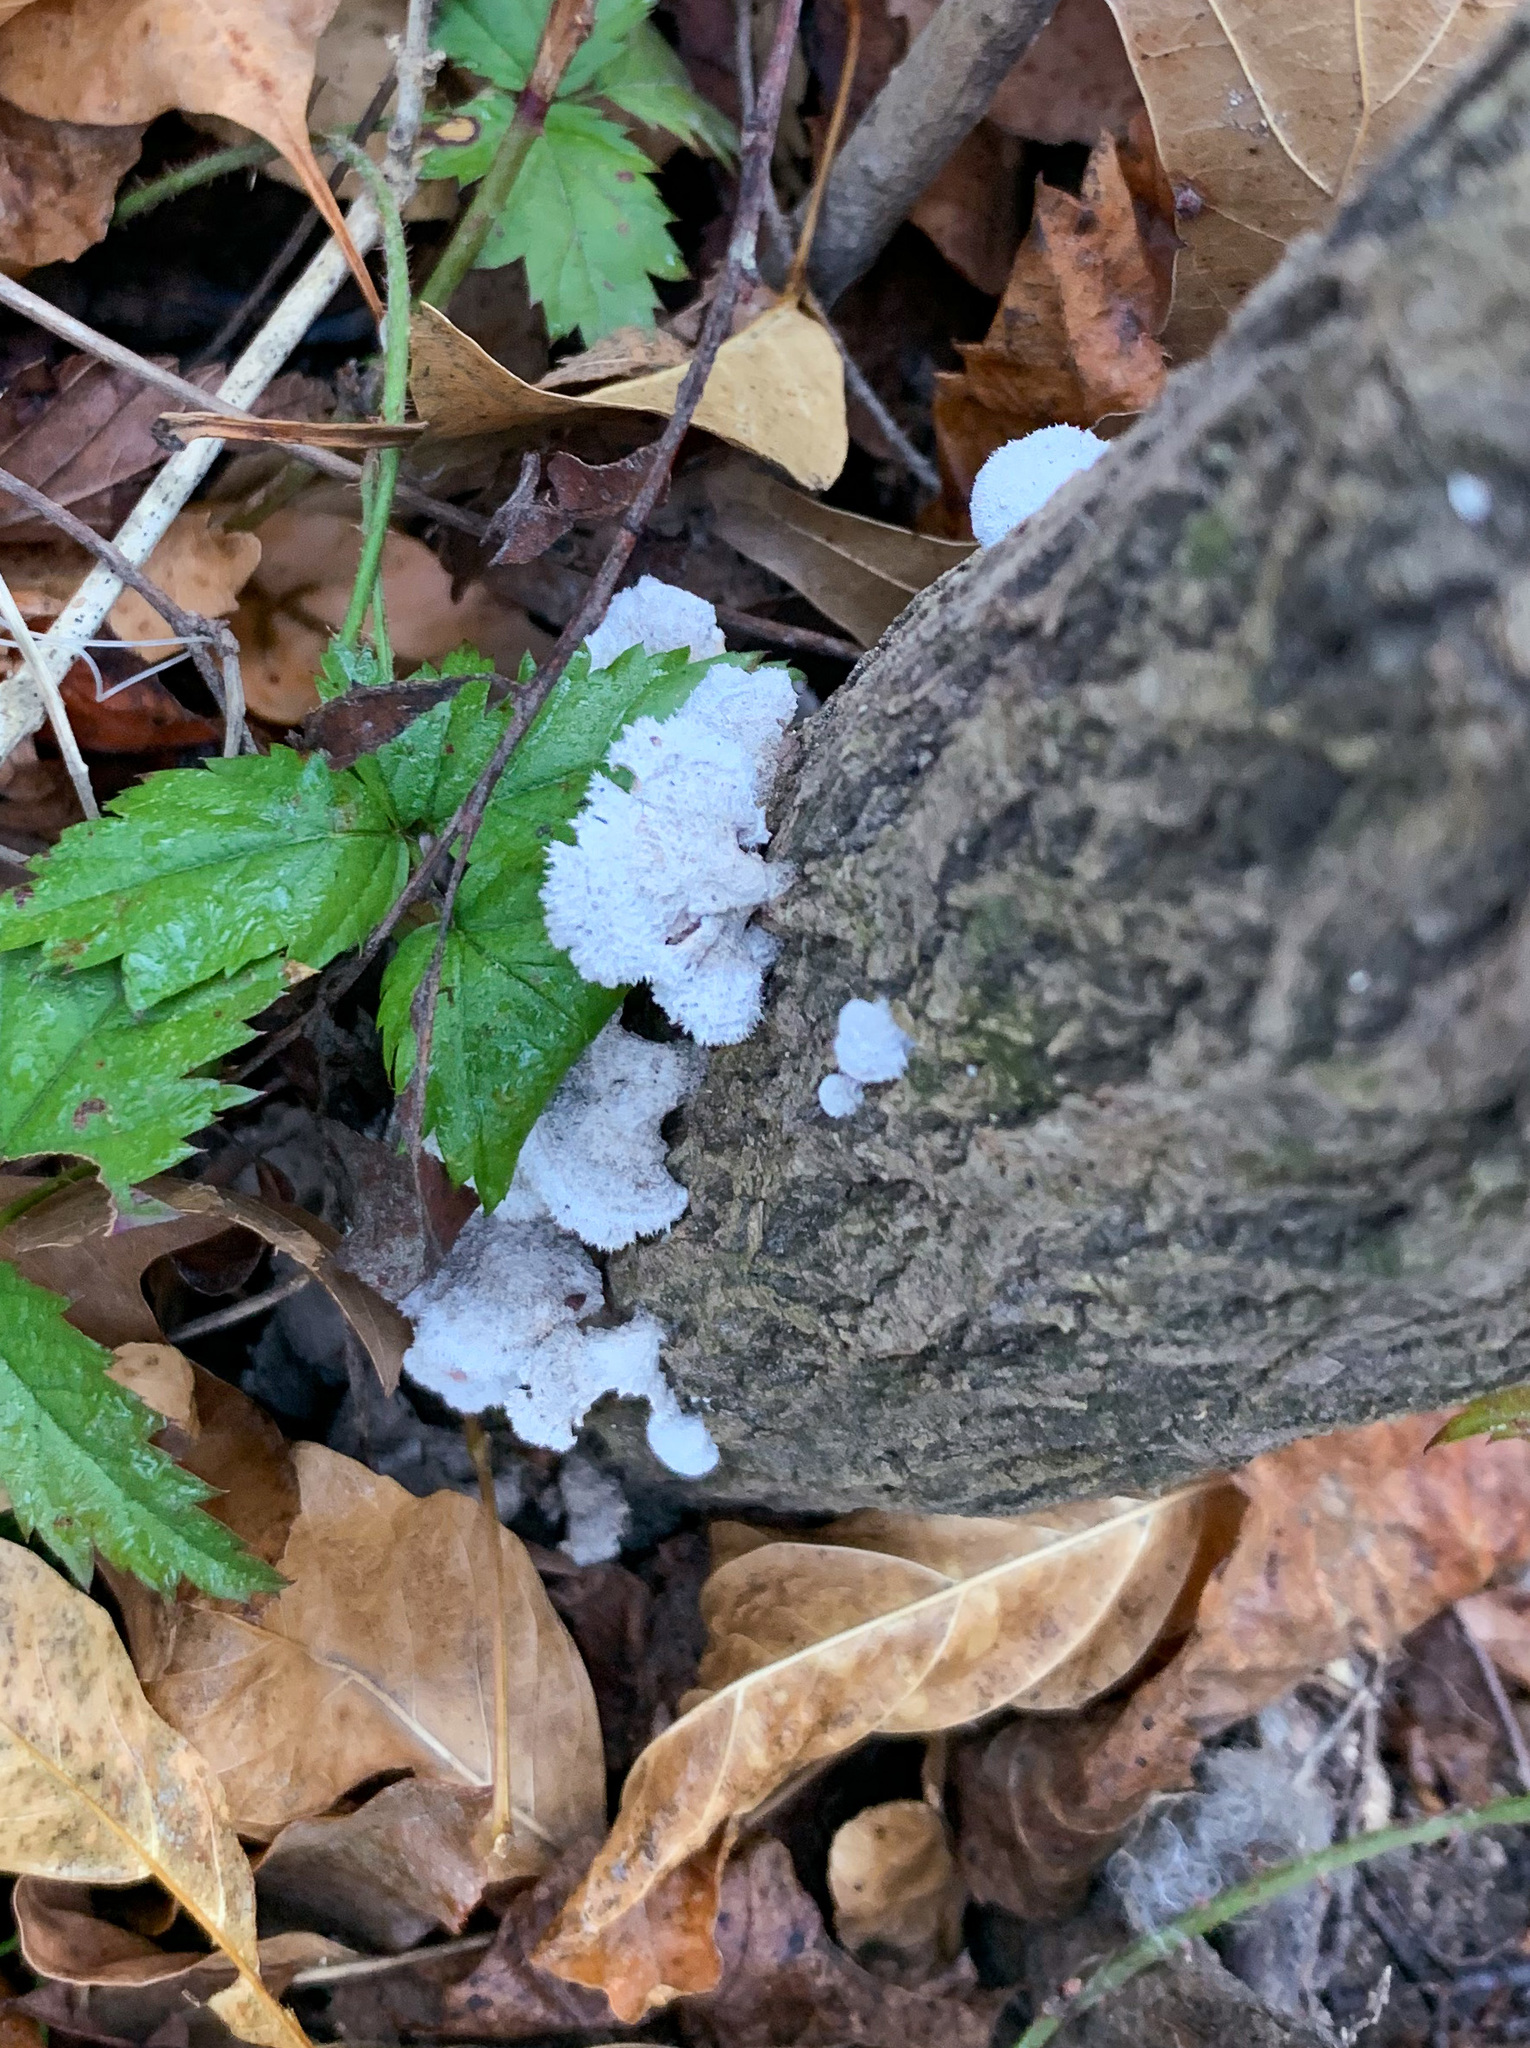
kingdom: Fungi
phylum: Basidiomycota
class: Agaricomycetes
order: Agaricales
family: Schizophyllaceae
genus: Schizophyllum
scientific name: Schizophyllum commune
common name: Common porecrust
